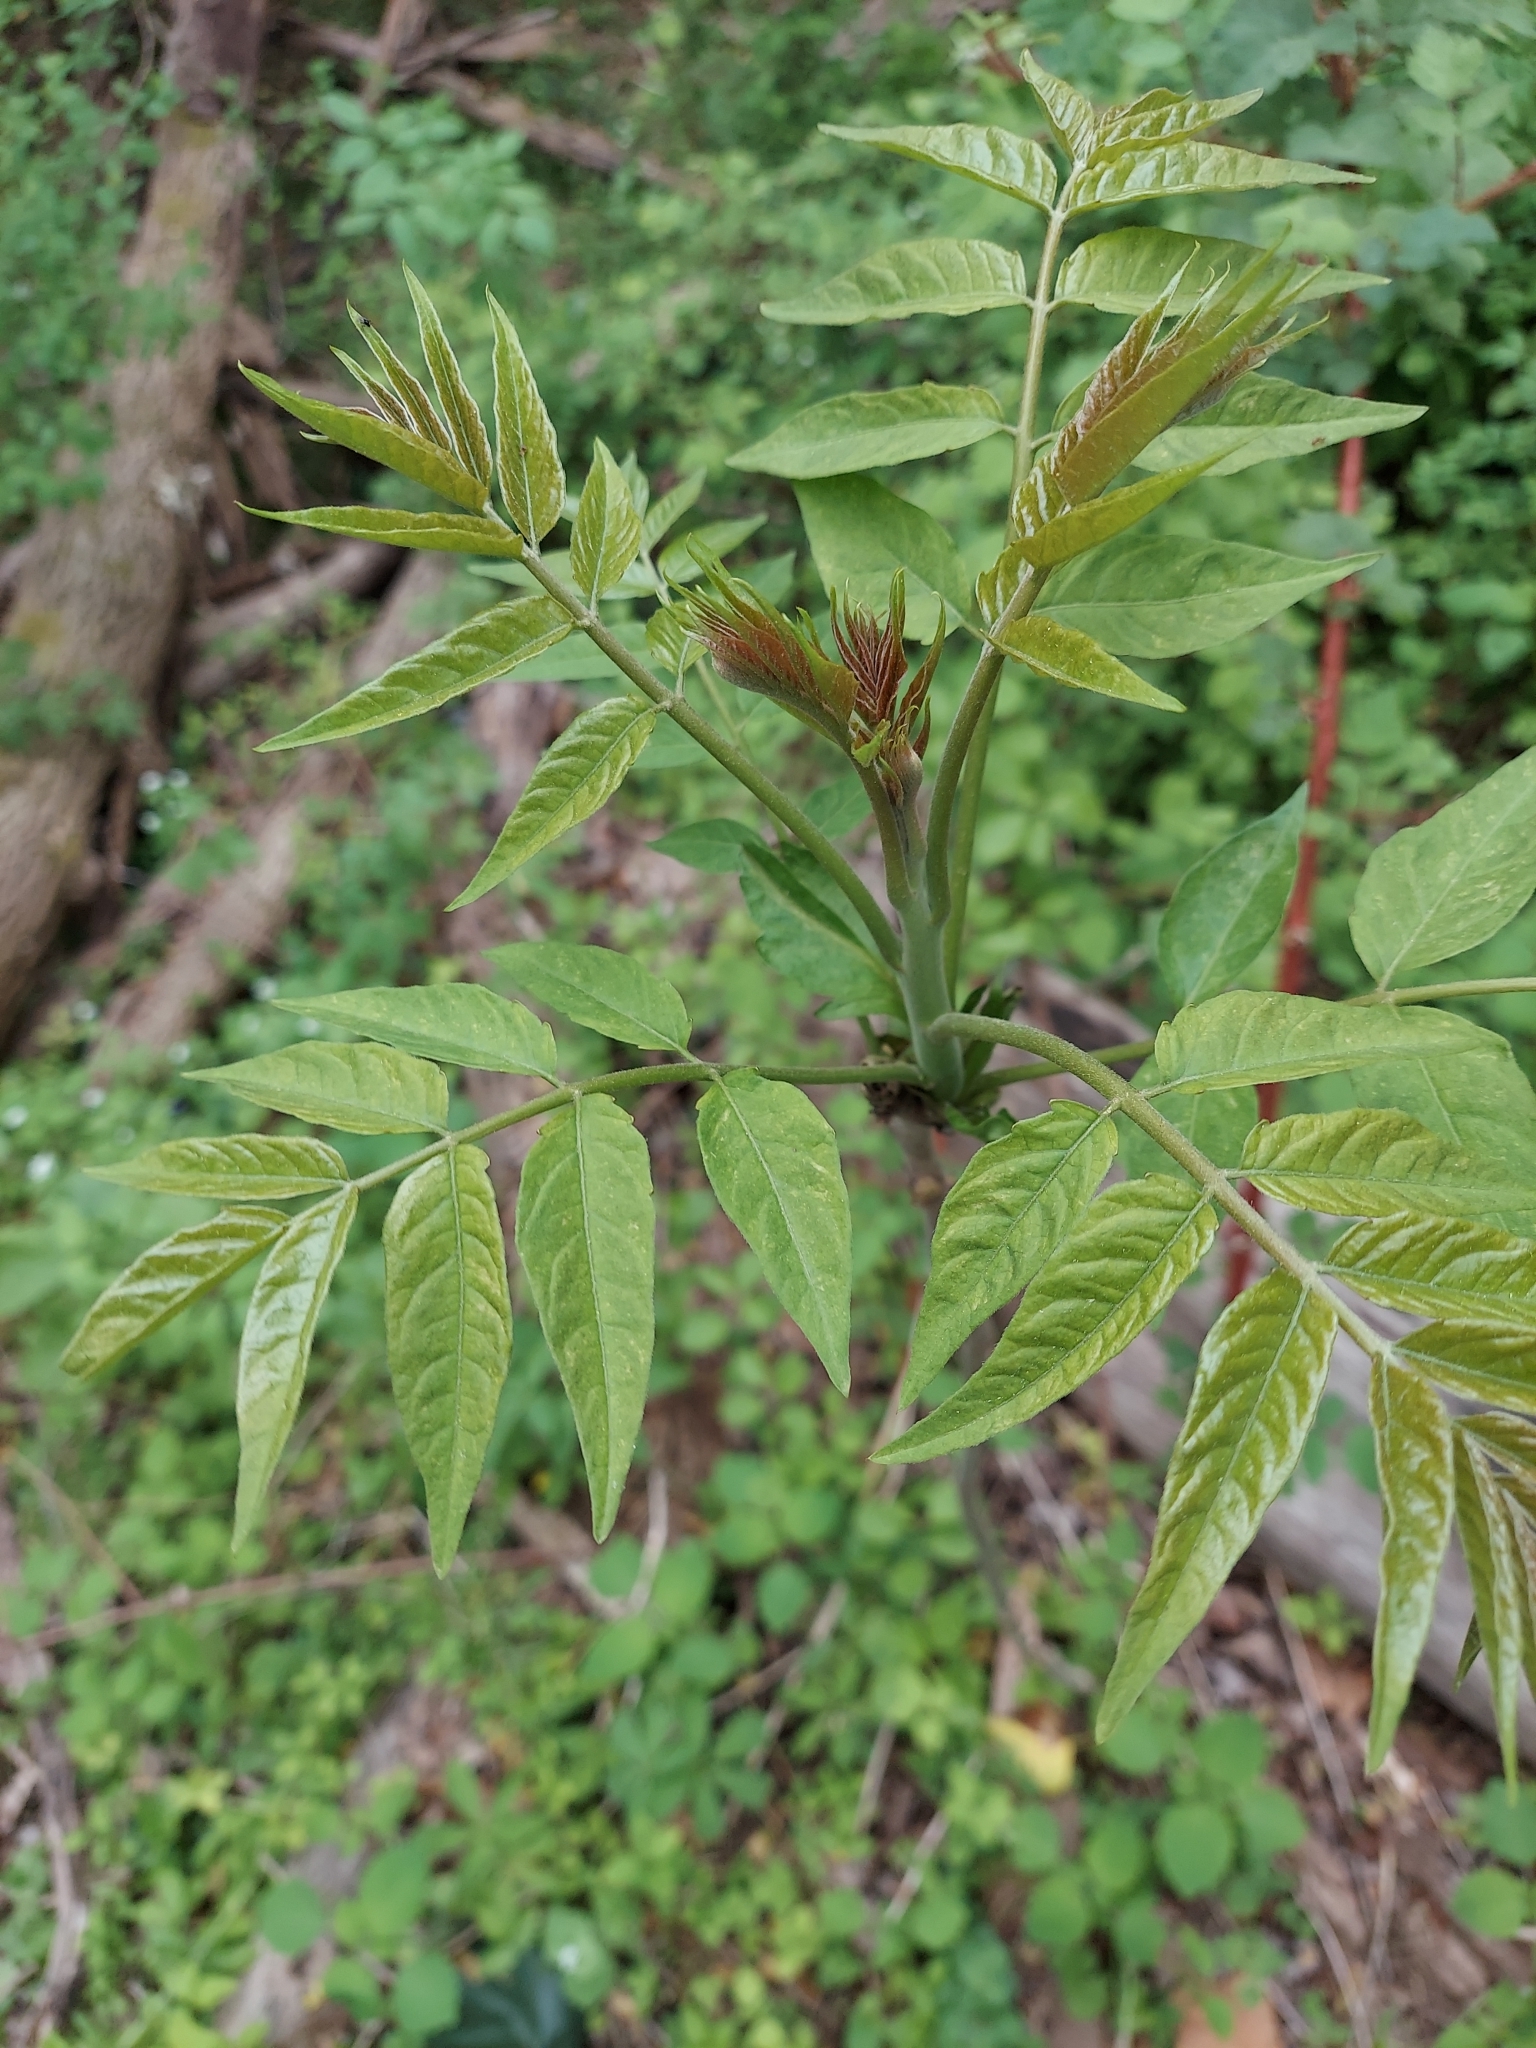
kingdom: Plantae
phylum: Tracheophyta
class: Magnoliopsida
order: Sapindales
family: Simaroubaceae
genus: Ailanthus
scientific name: Ailanthus altissima
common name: Tree-of-heaven
